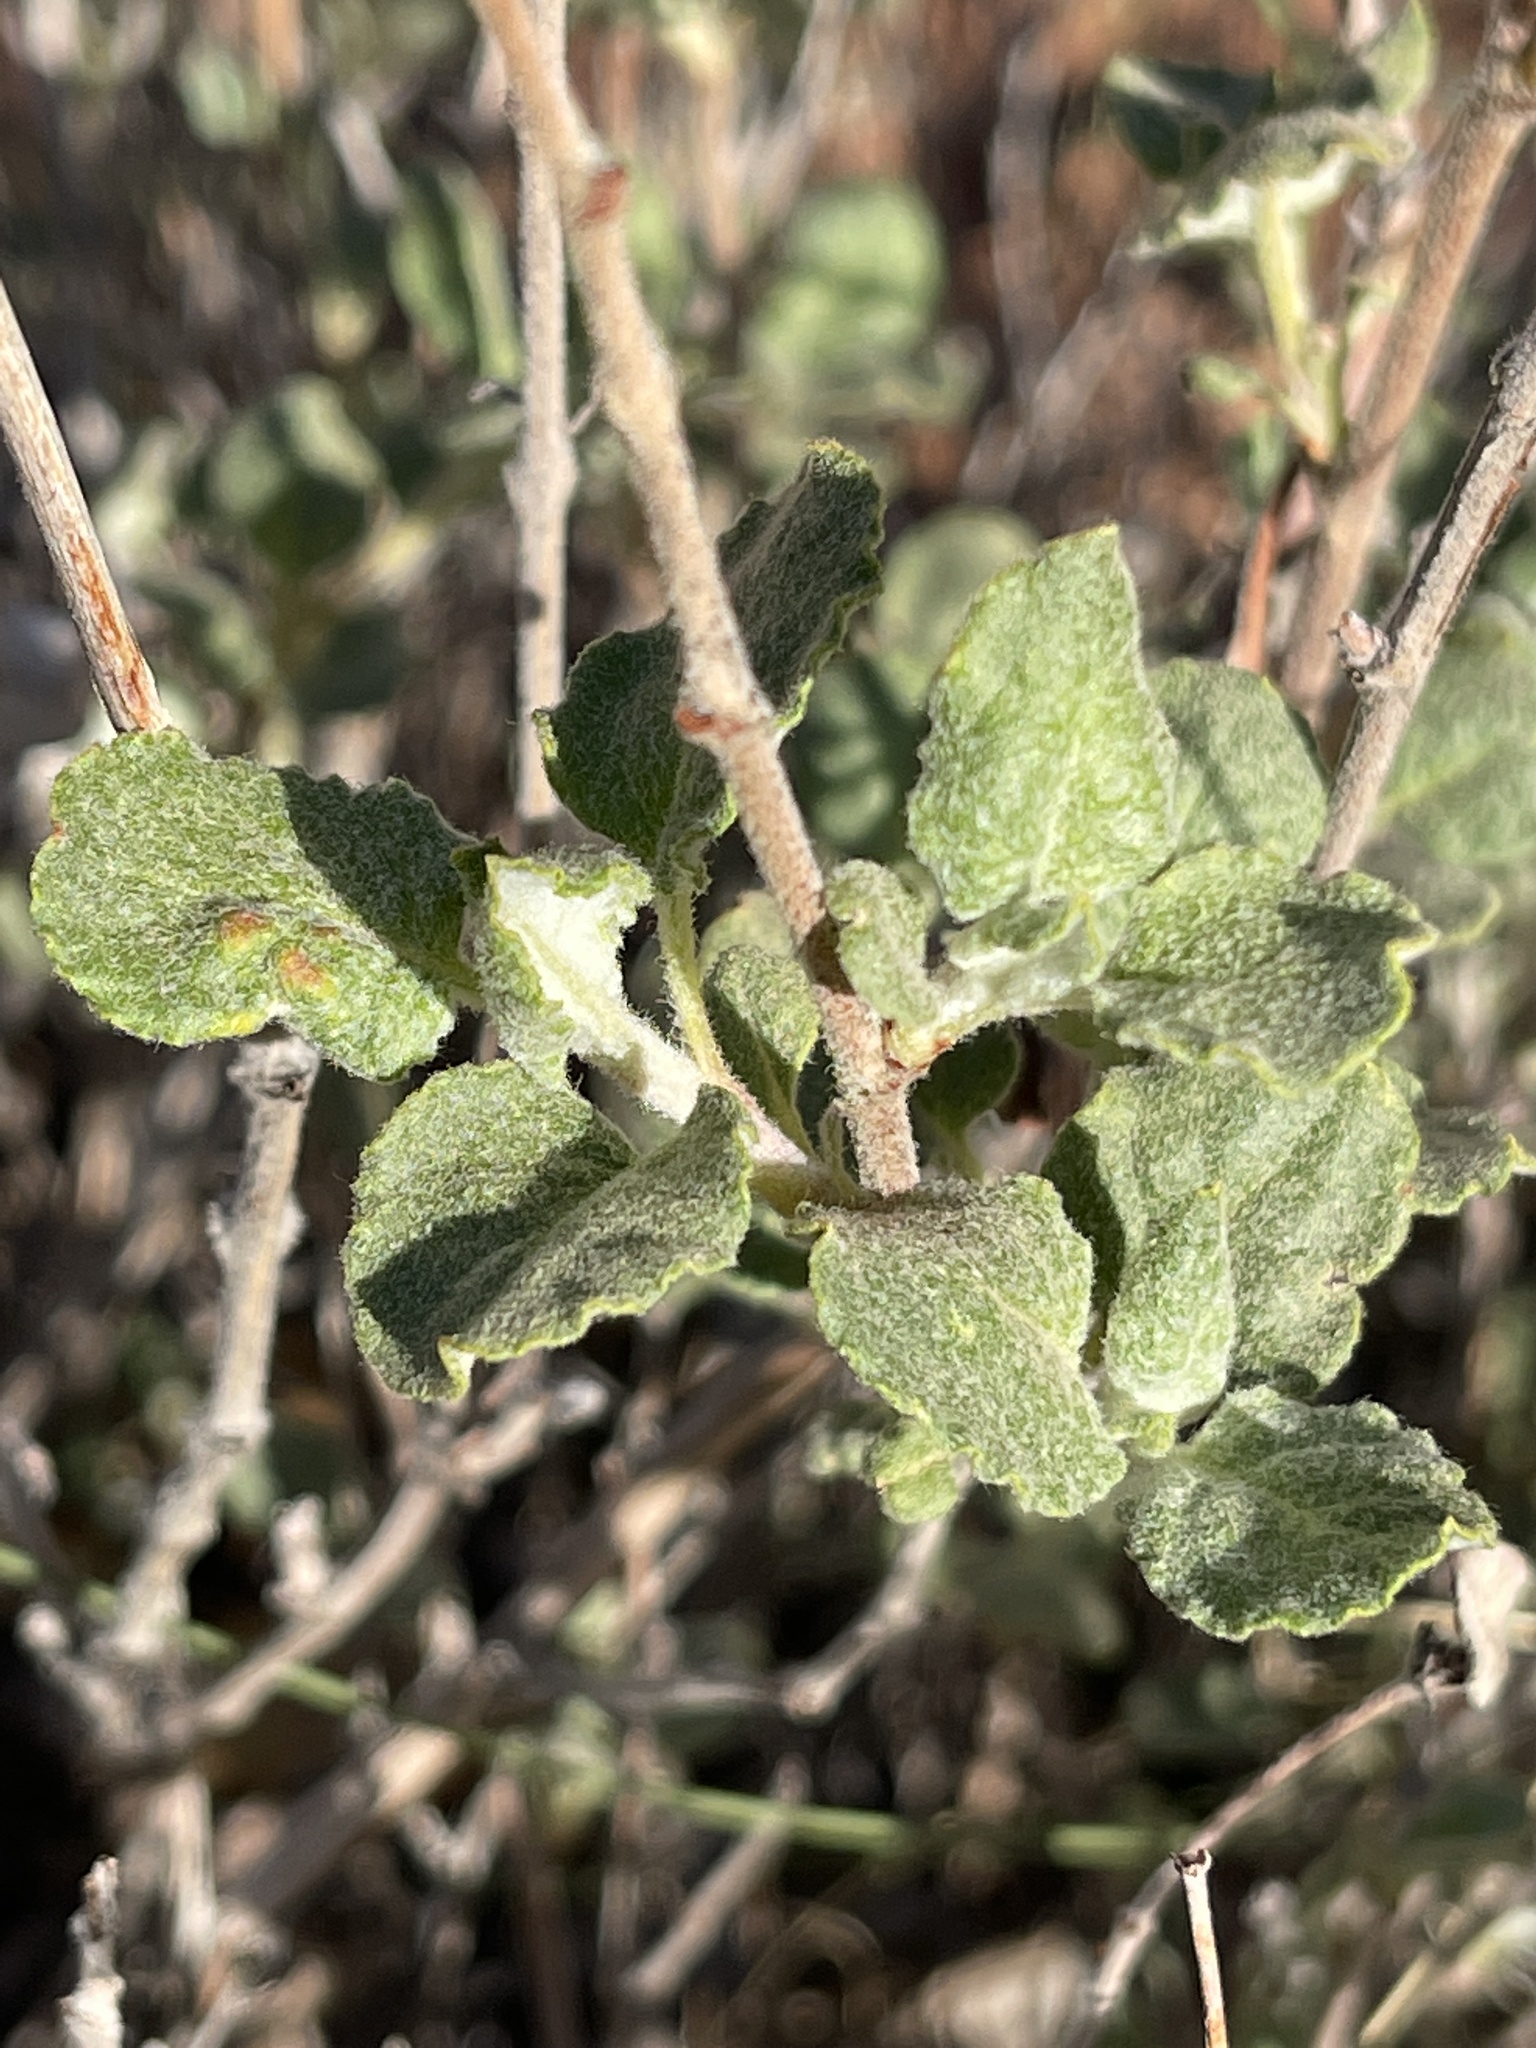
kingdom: Plantae
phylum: Tracheophyta
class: Magnoliopsida
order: Caryophyllales
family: Polygonaceae
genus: Eriogonum
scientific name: Eriogonum corymbosum
